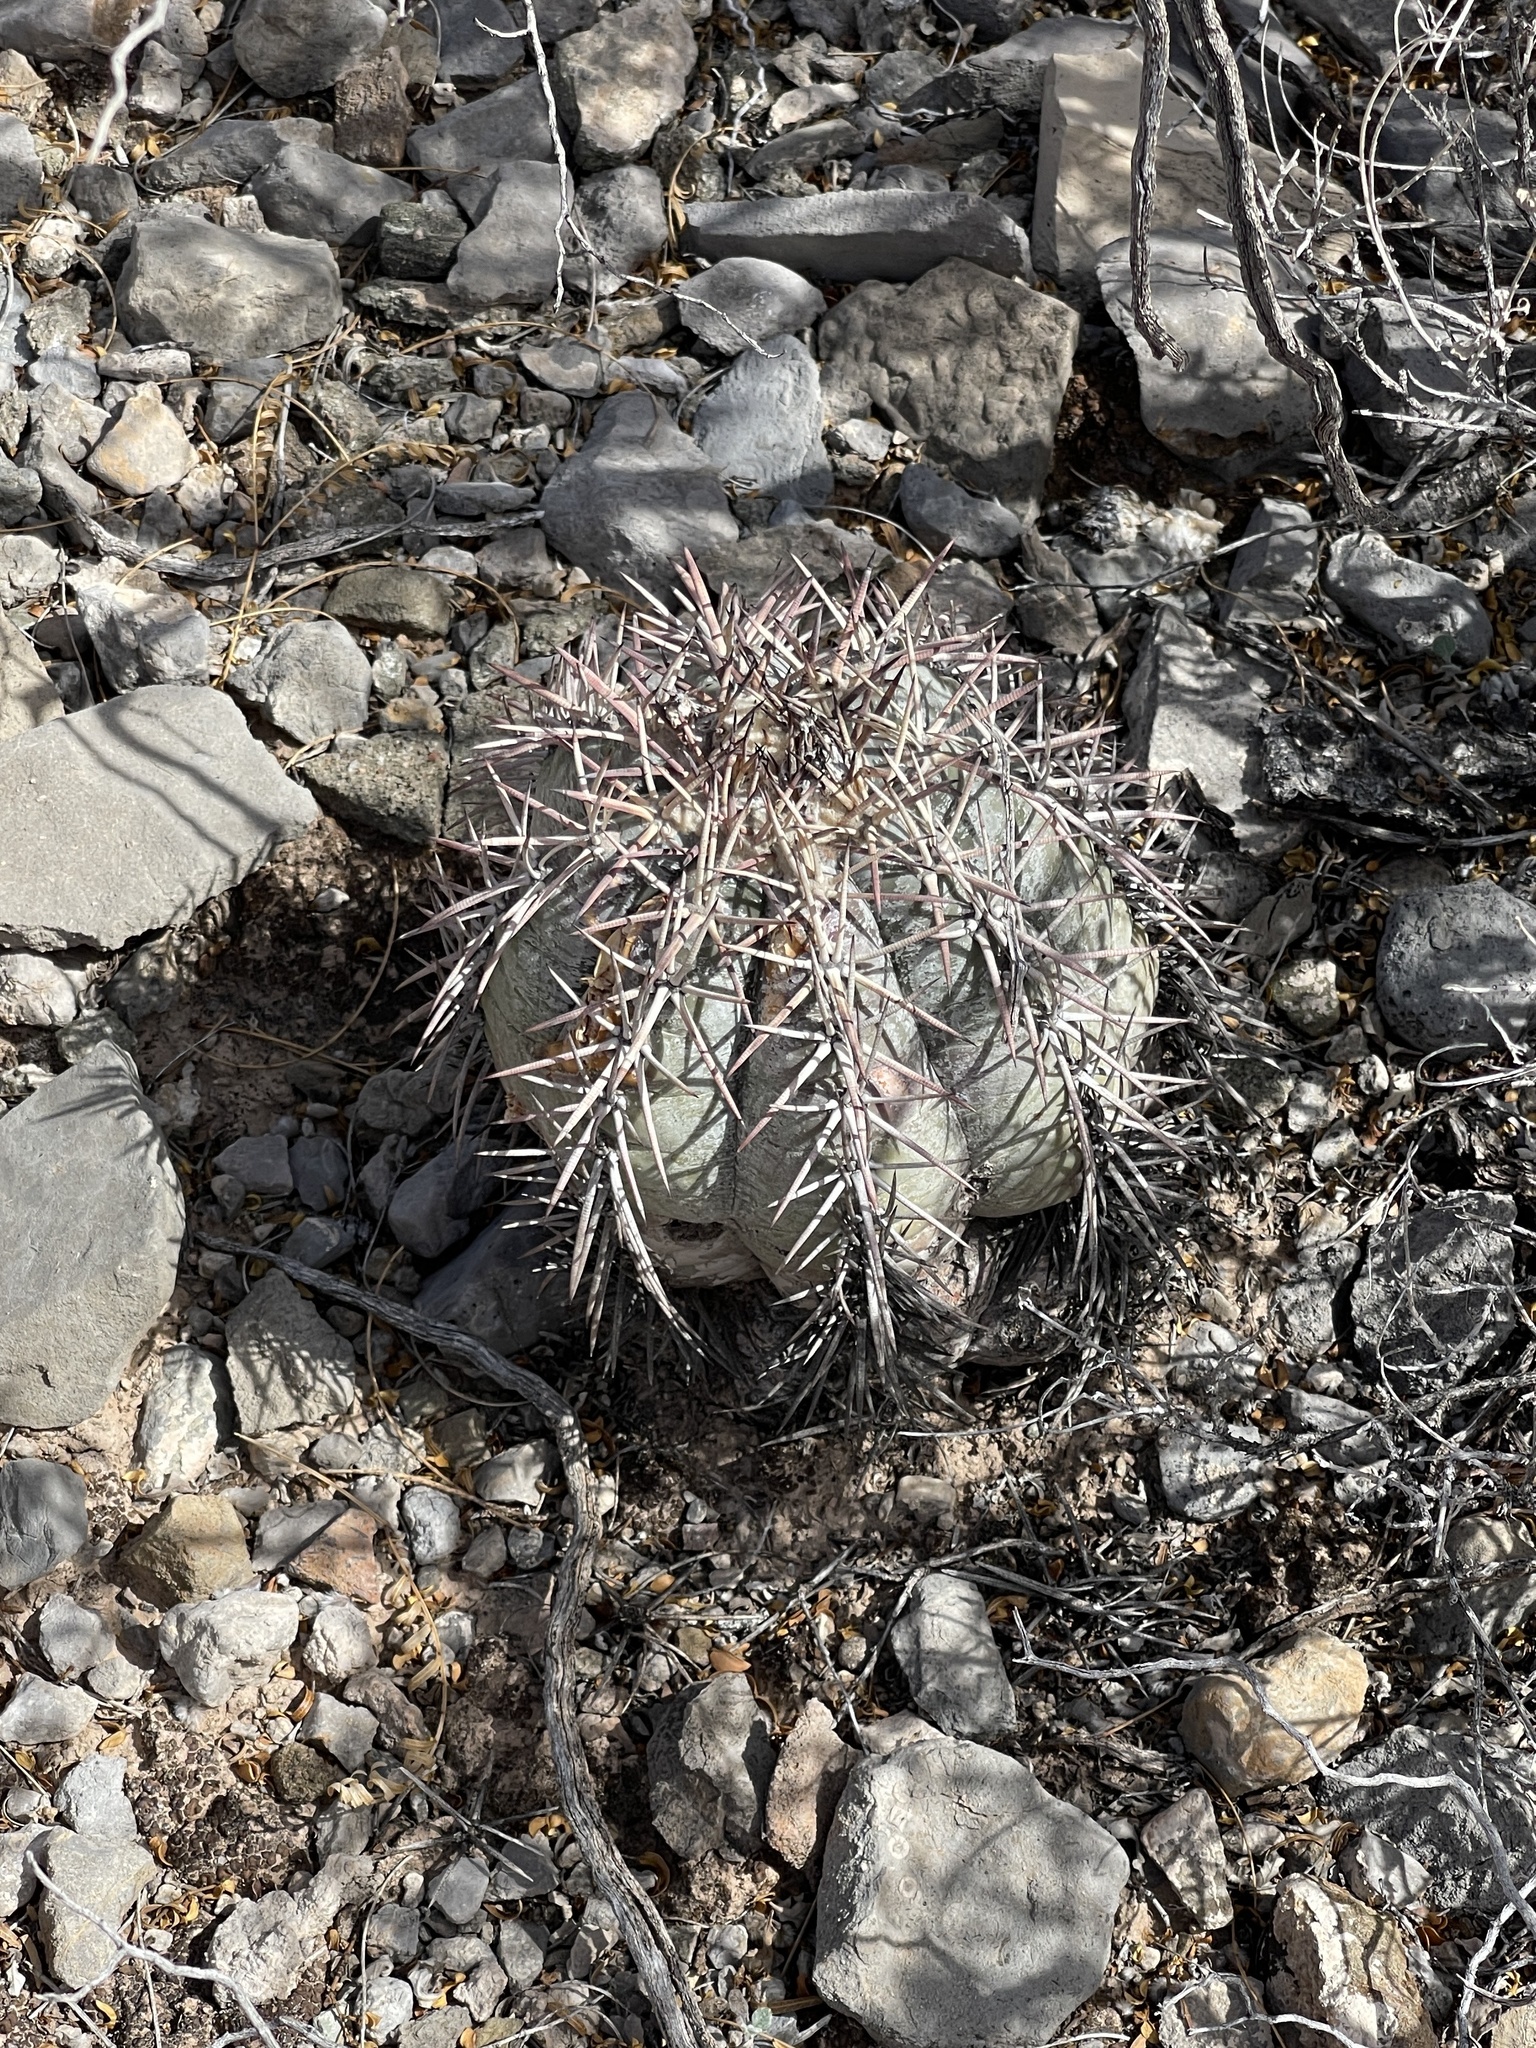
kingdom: Plantae
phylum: Tracheophyta
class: Magnoliopsida
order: Caryophyllales
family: Cactaceae
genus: Echinocactus
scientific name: Echinocactus horizonthalonius
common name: Devilshead
